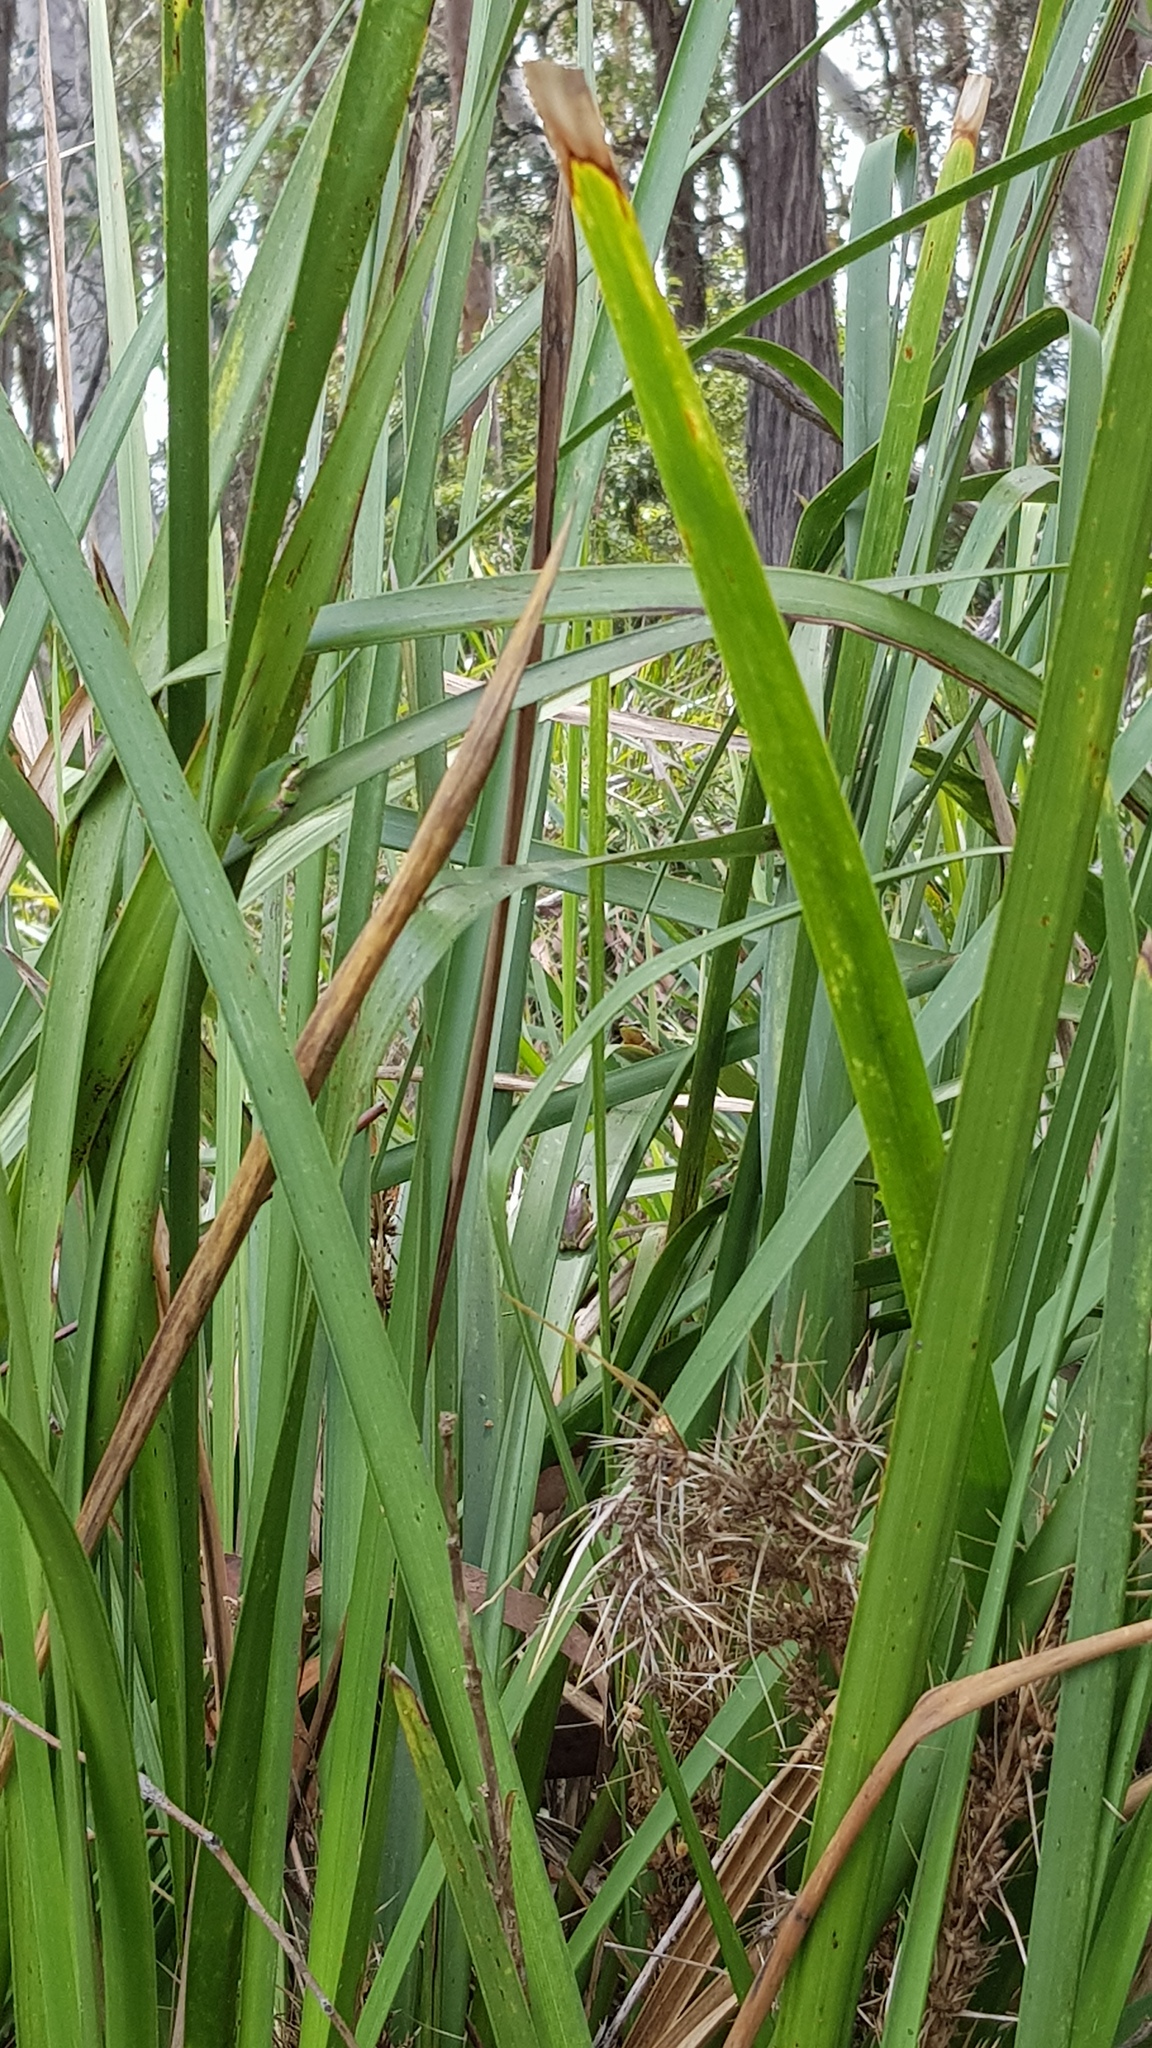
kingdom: Animalia
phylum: Chordata
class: Amphibia
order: Anura
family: Pelodryadidae
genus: Litoria
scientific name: Litoria fallax
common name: Eastern dwarf treefrog
